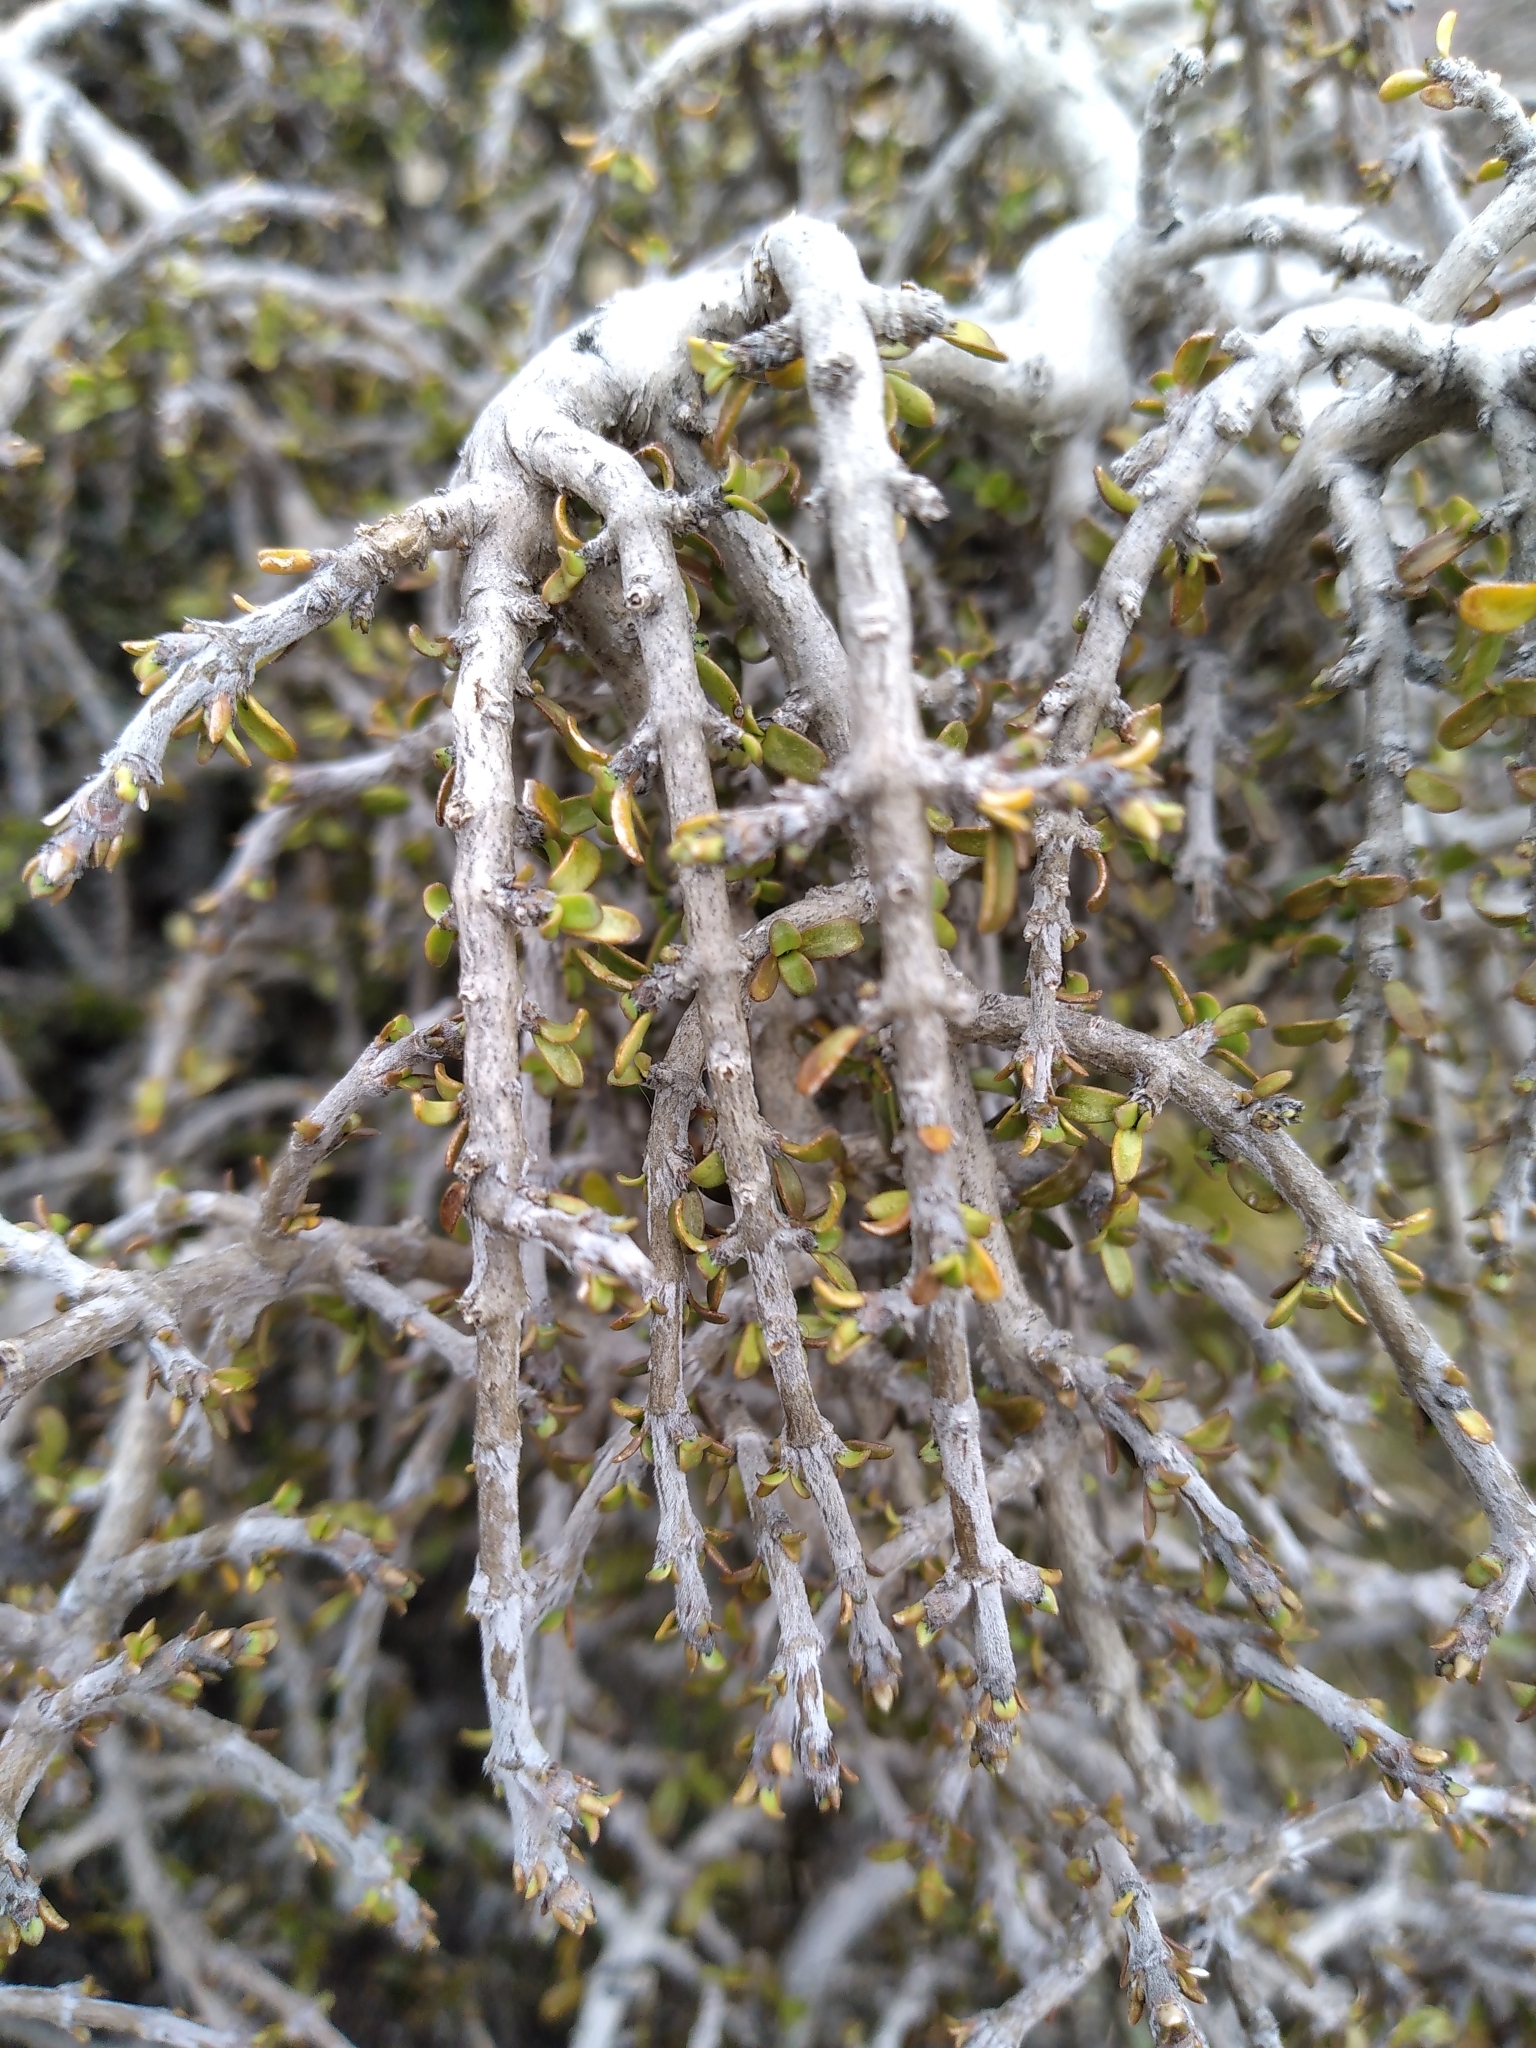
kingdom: Plantae
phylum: Tracheophyta
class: Magnoliopsida
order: Gentianales
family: Rubiaceae
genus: Coprosma
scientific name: Coprosma decurva
